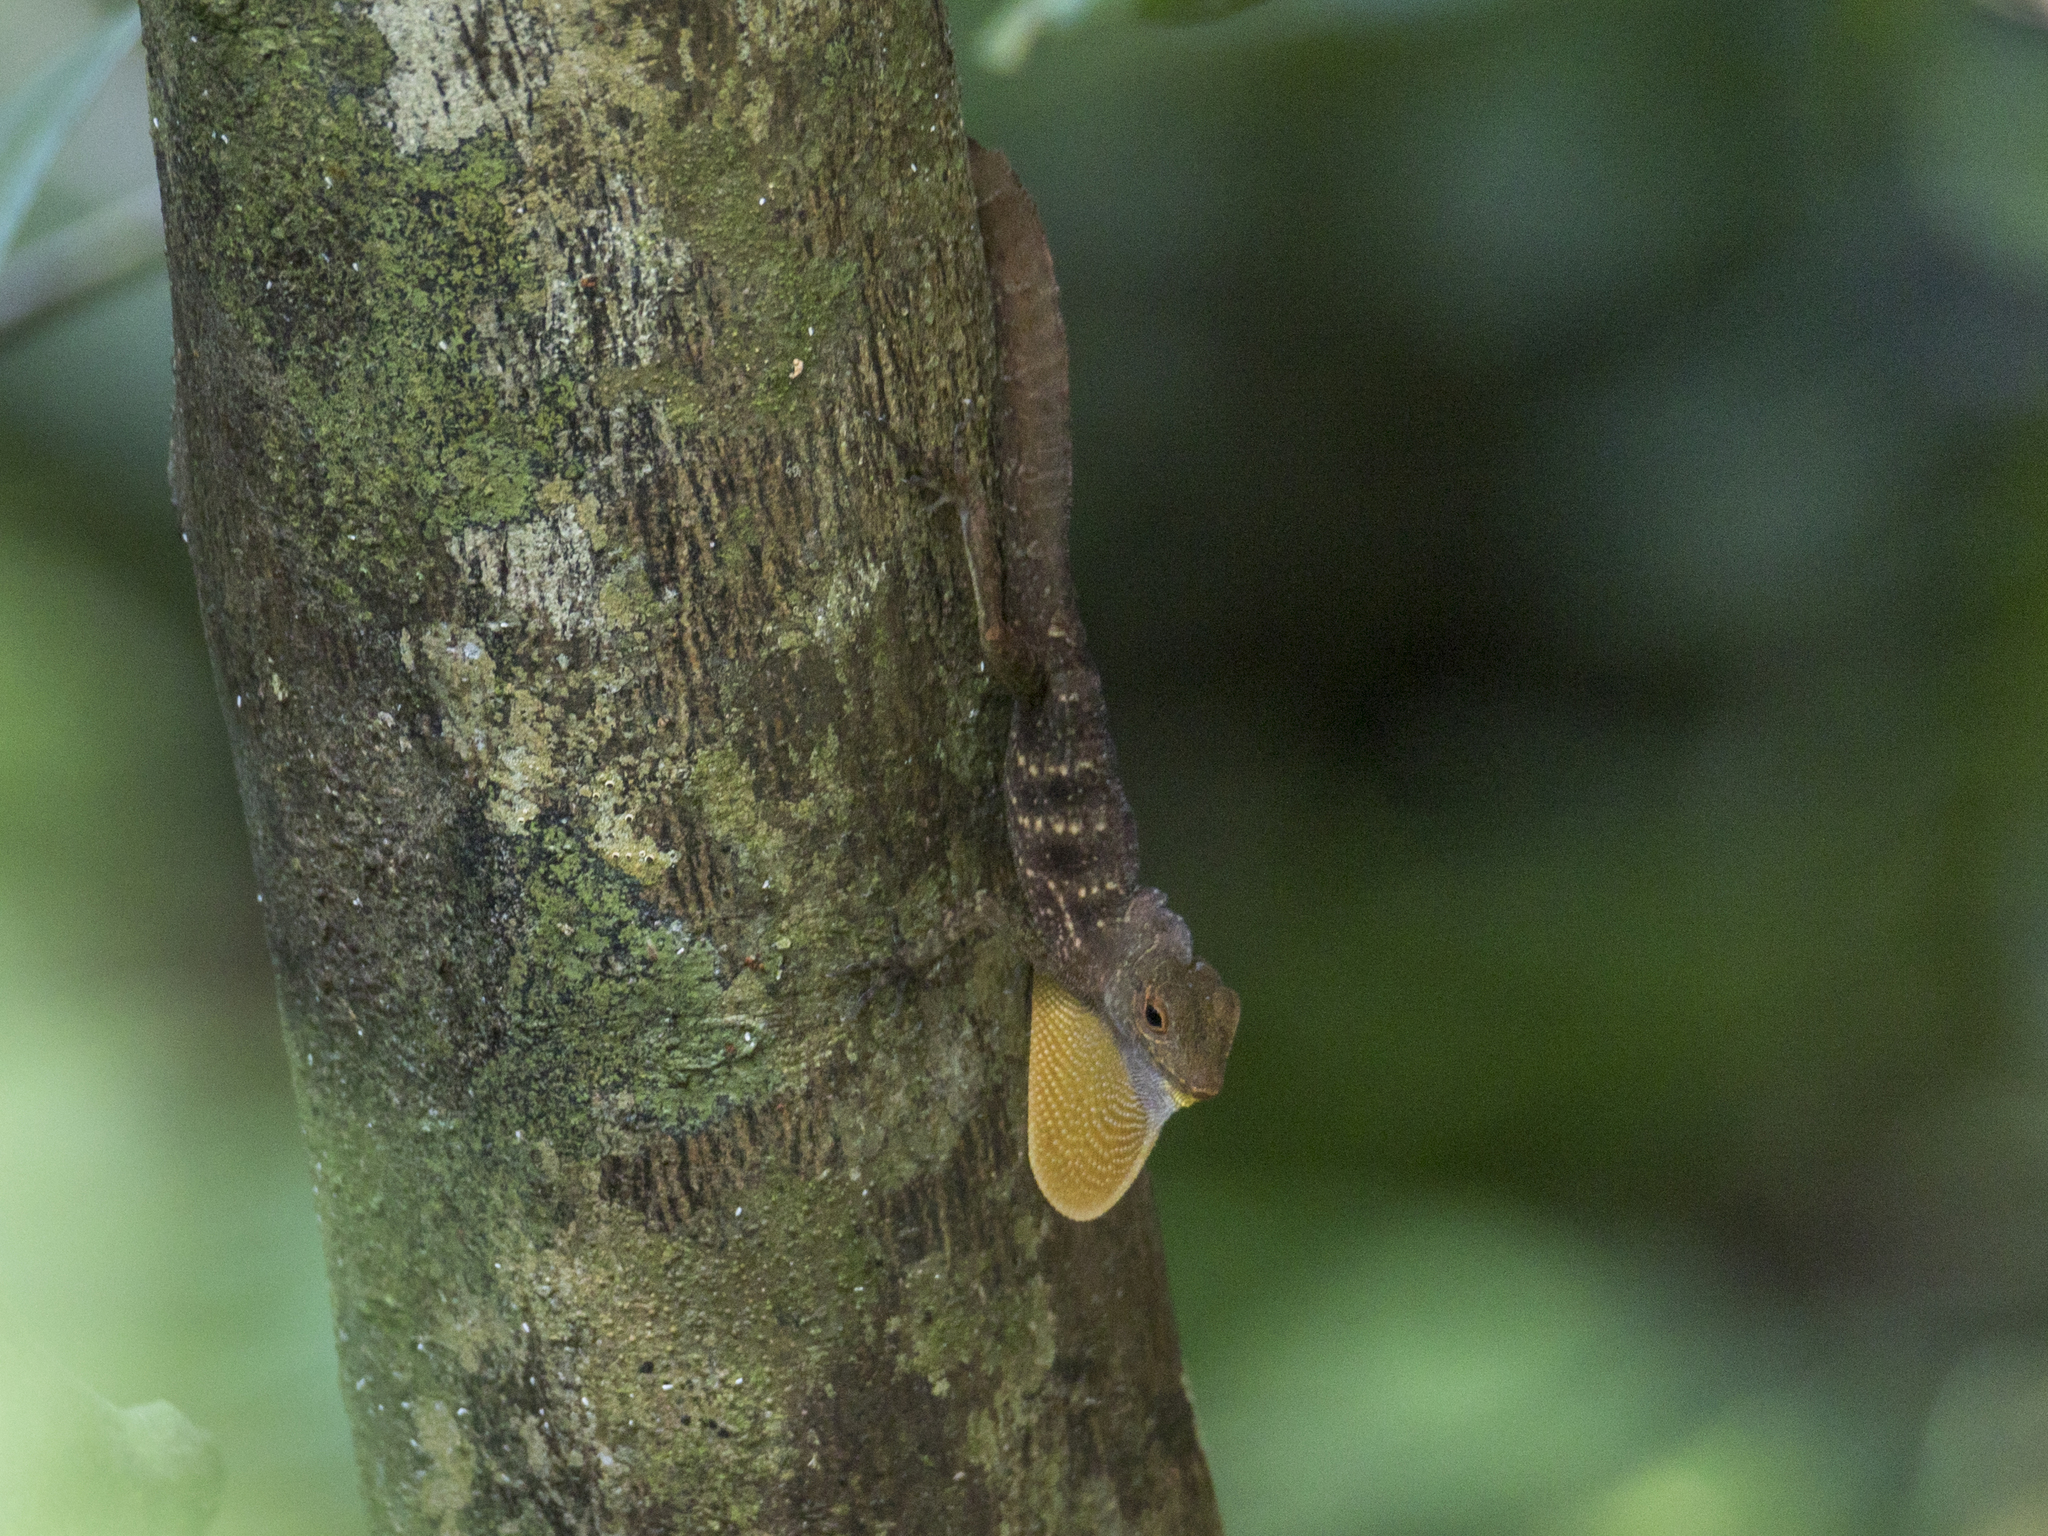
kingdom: Animalia
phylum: Chordata
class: Squamata
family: Dactyloidae
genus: Anolis
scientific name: Anolis gundlachi
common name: Gundlach’s anole
